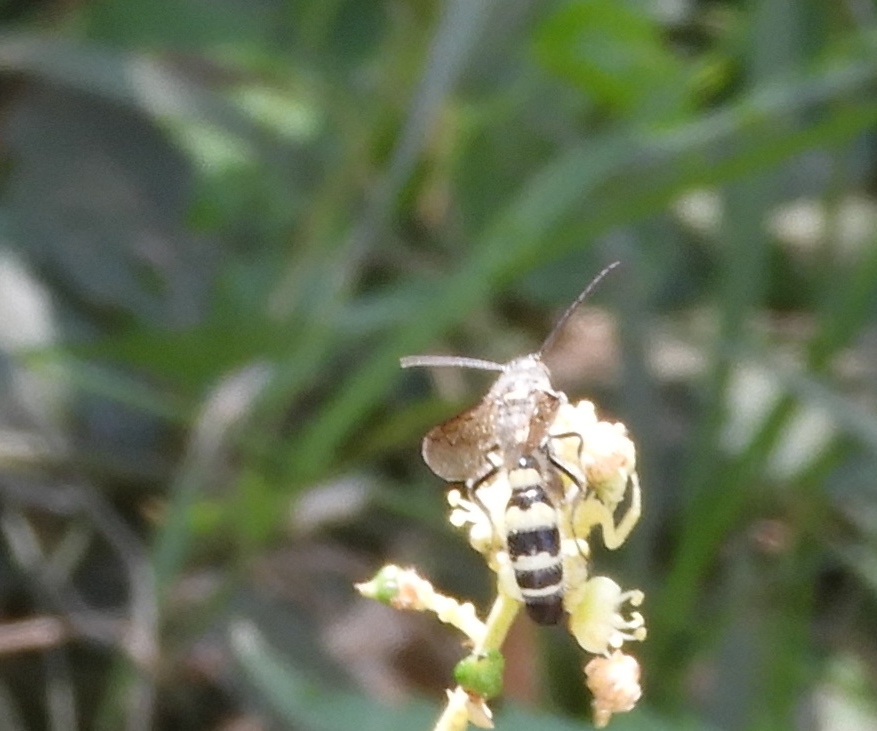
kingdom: Animalia
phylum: Arthropoda
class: Insecta
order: Hymenoptera
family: Scoliidae
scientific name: Scoliidae
